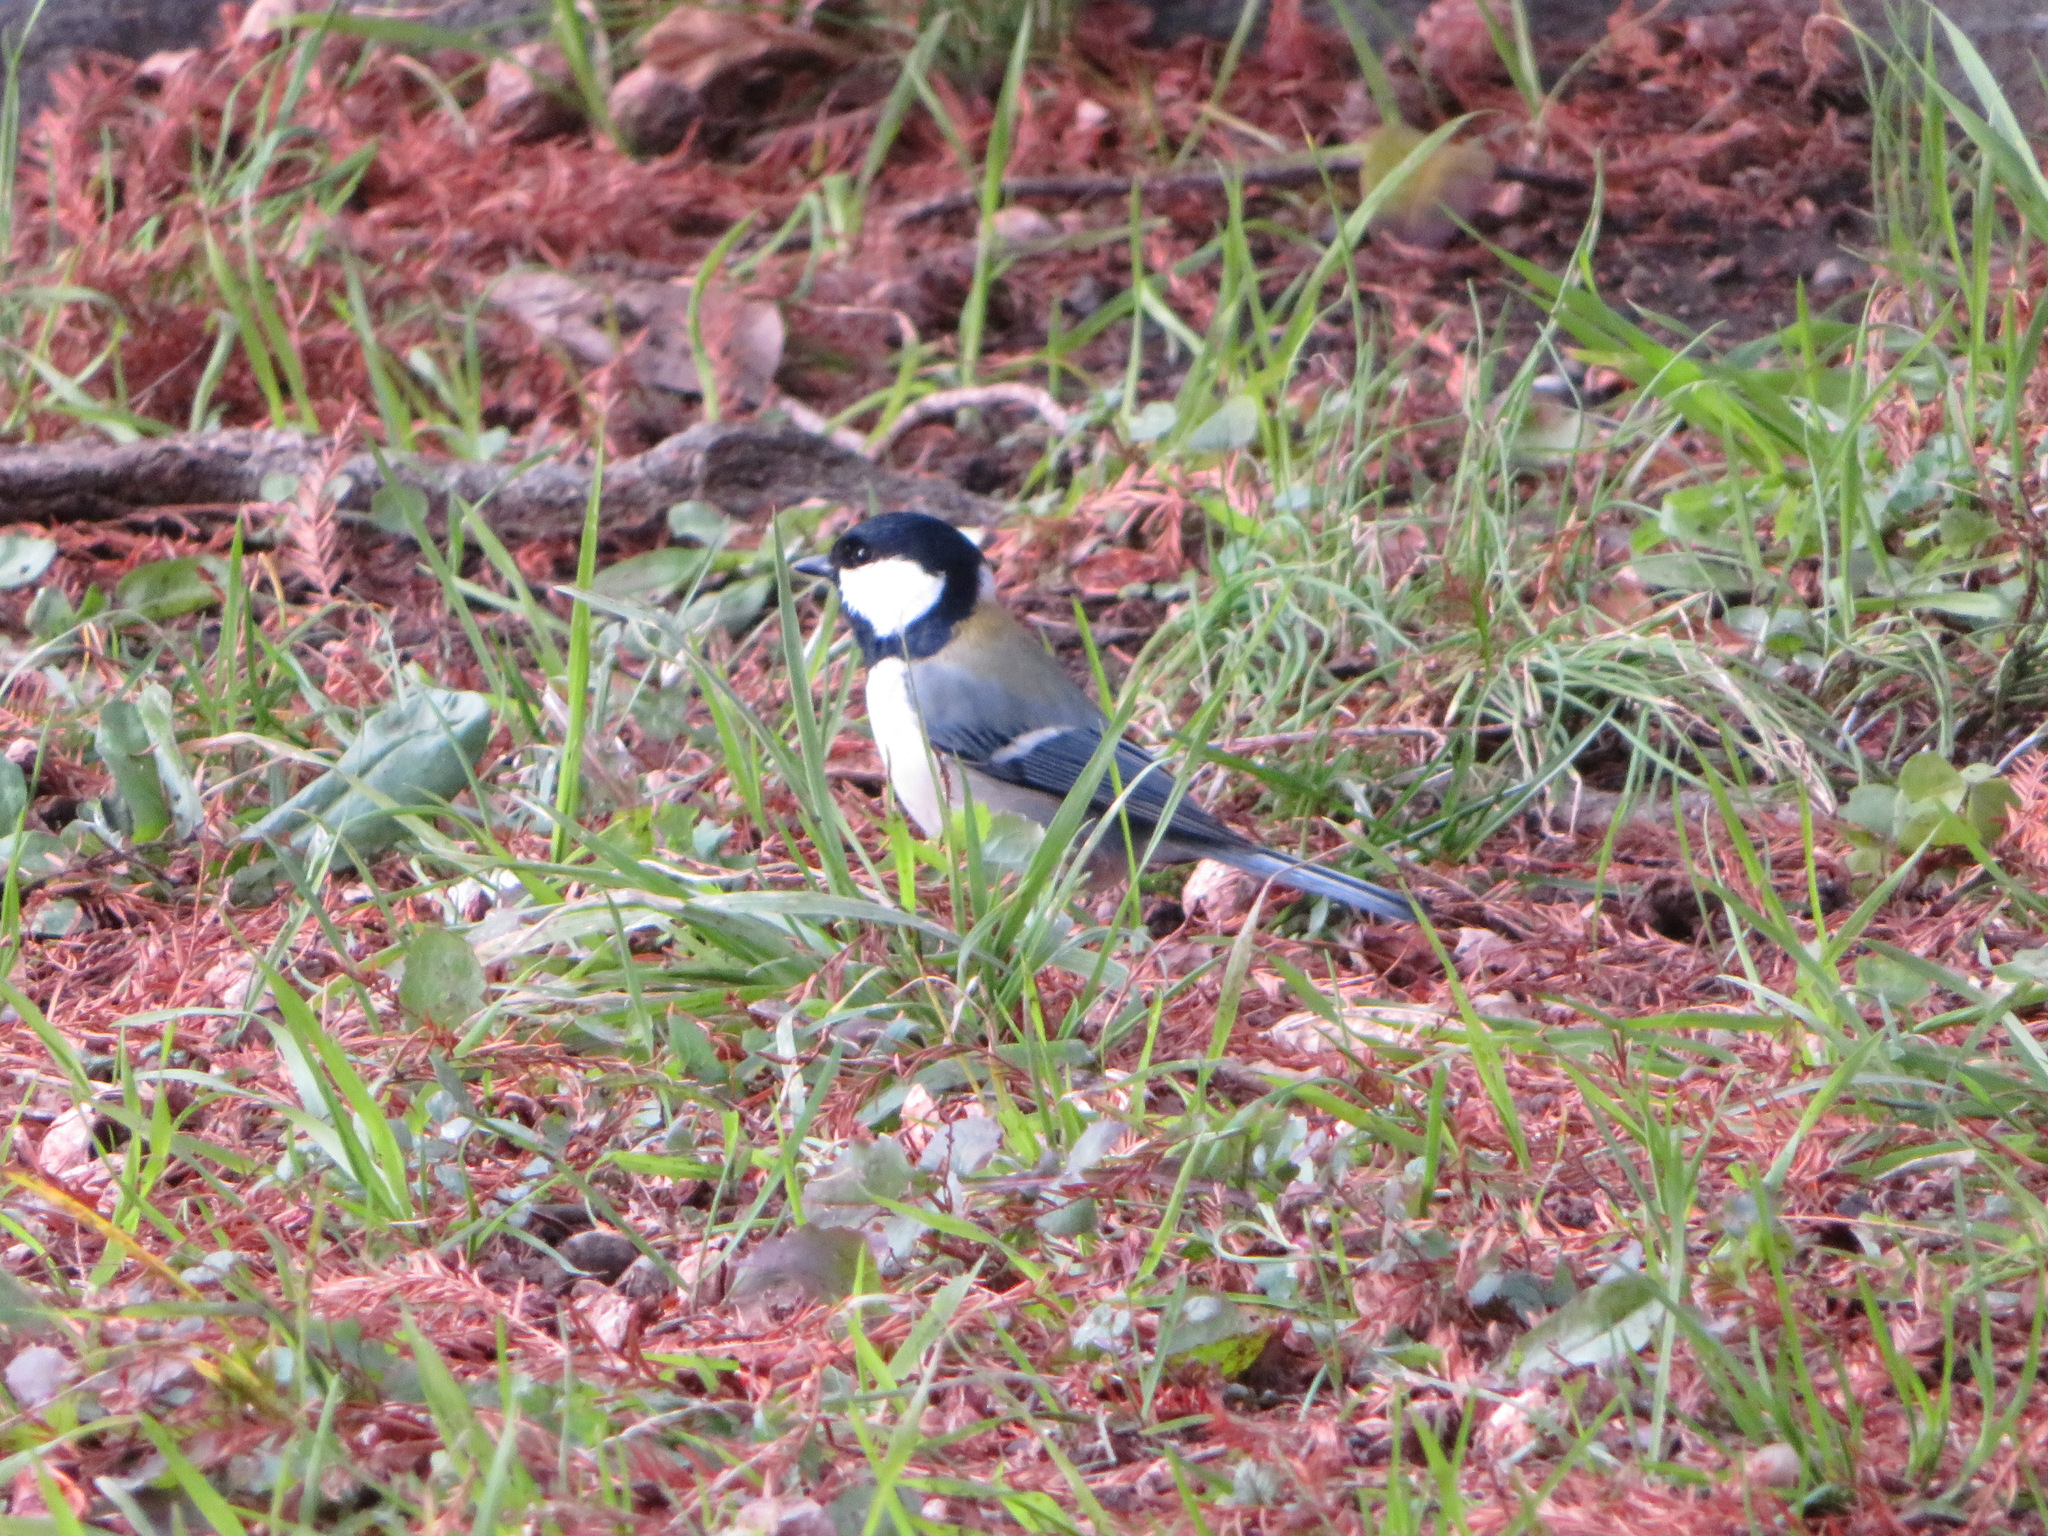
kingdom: Animalia
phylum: Chordata
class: Aves
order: Passeriformes
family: Paridae
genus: Parus
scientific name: Parus minor
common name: Japanese tit
